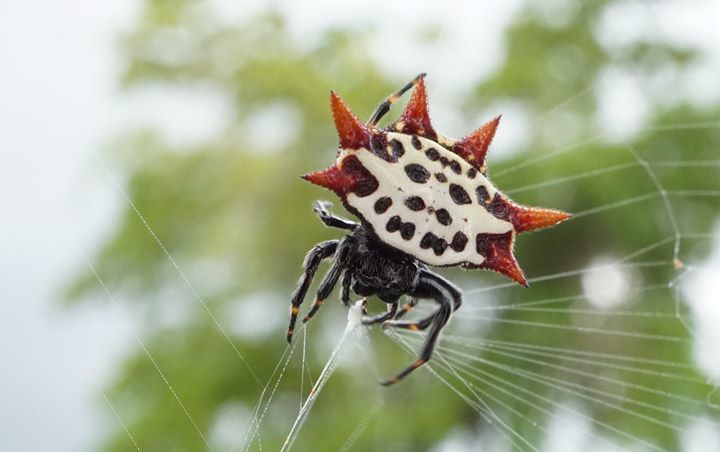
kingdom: Animalia
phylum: Arthropoda
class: Arachnida
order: Araneae
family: Araneidae
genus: Gasteracantha
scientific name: Gasteracantha cancriformis
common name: Orb weavers
